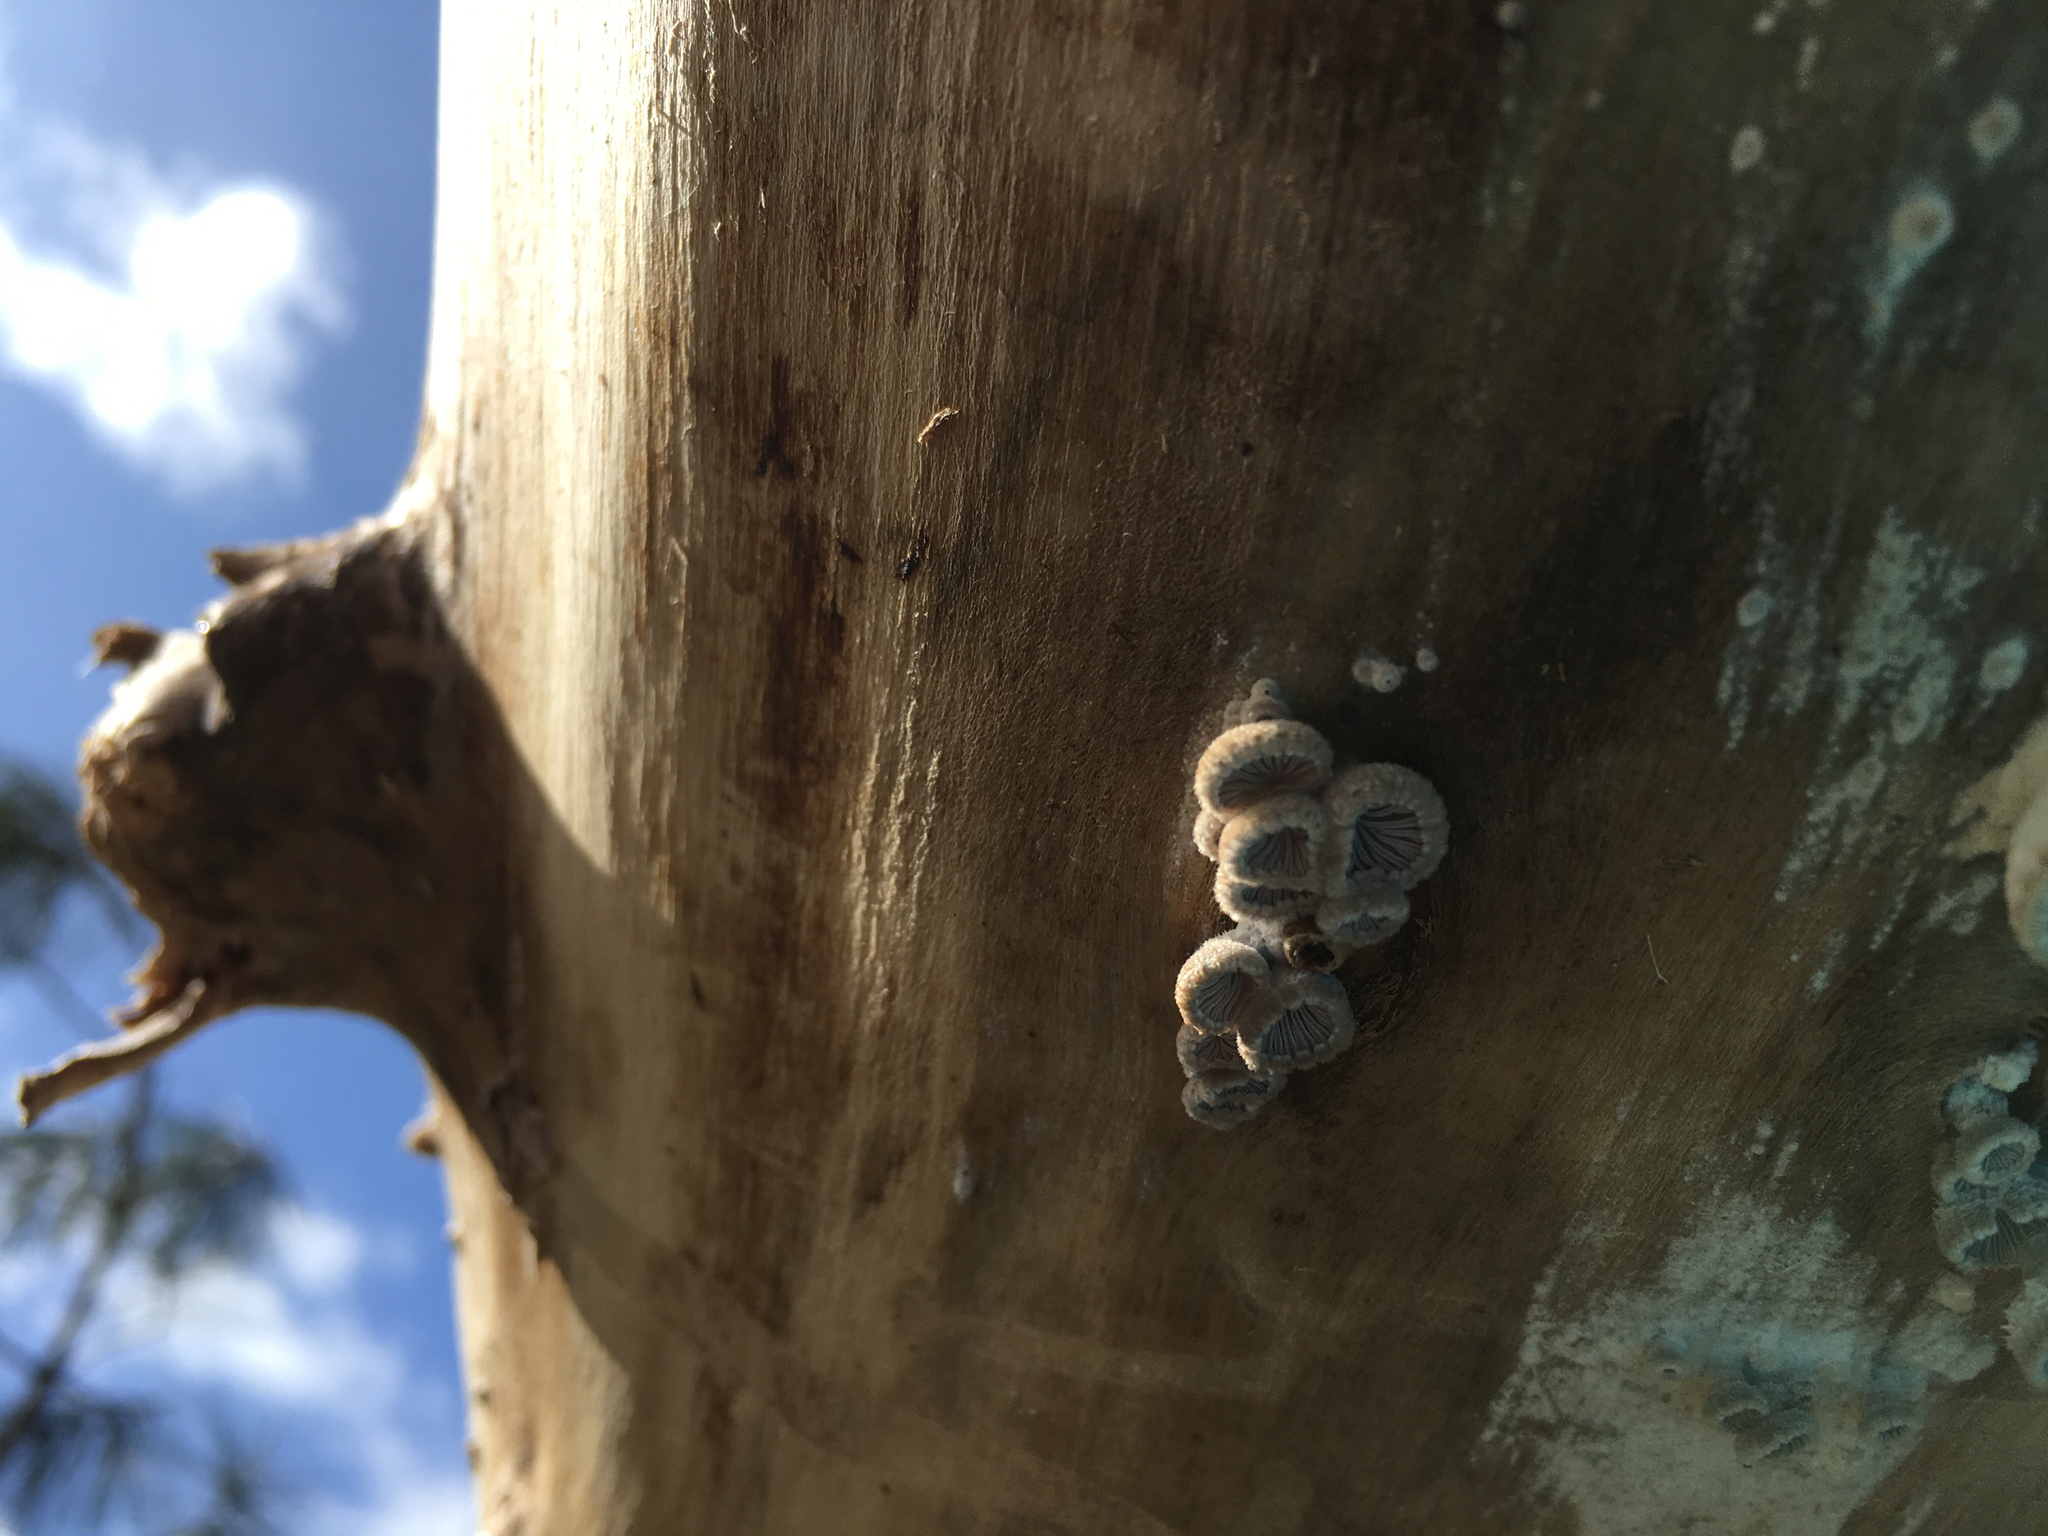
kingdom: Fungi
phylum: Basidiomycota
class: Agaricomycetes
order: Agaricales
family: Schizophyllaceae
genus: Schizophyllum
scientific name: Schizophyllum commune
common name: Common porecrust
